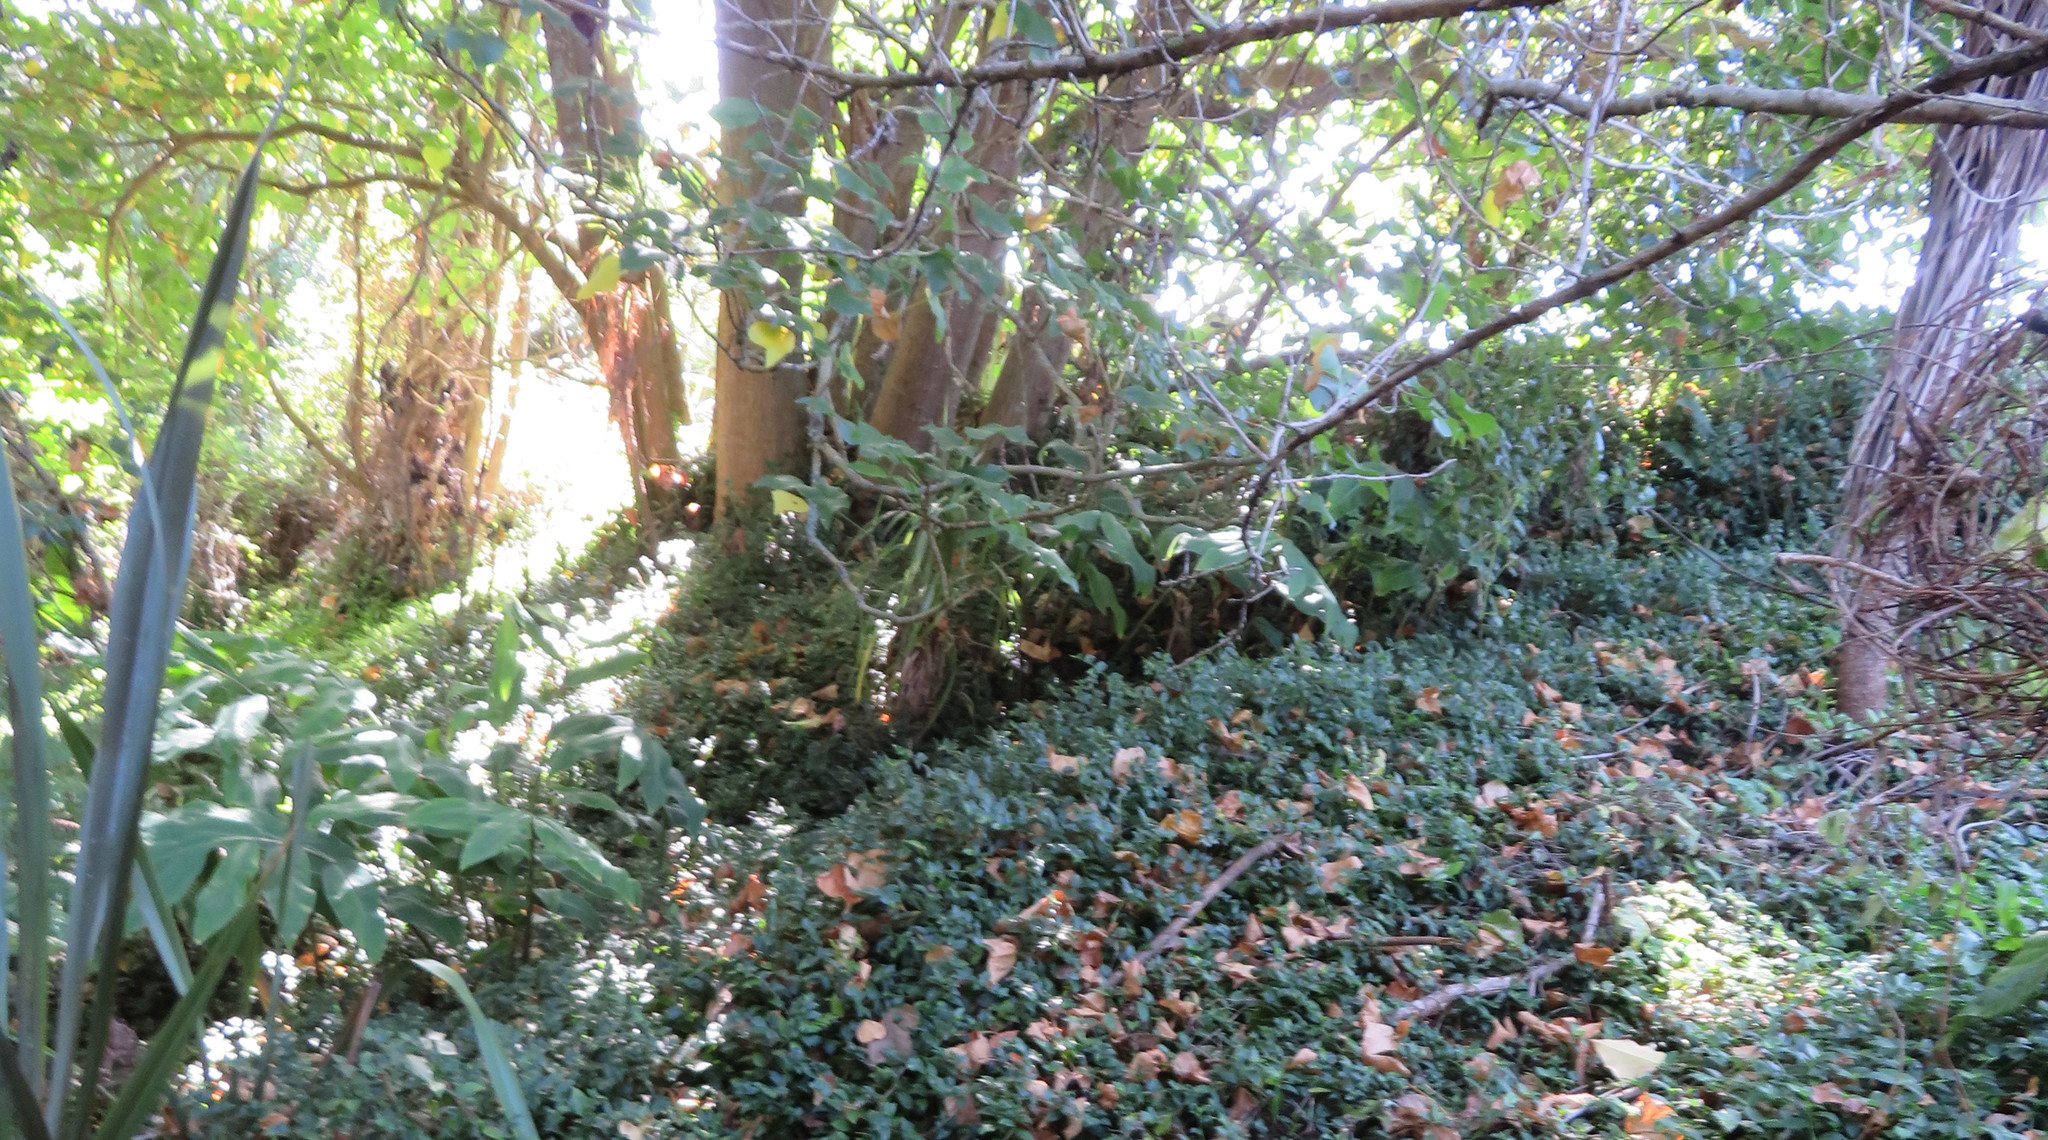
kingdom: Plantae
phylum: Tracheophyta
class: Liliopsida
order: Zingiberales
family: Zingiberaceae
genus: Hedychium
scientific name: Hedychium gardnerianum
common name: Himalayan ginger
